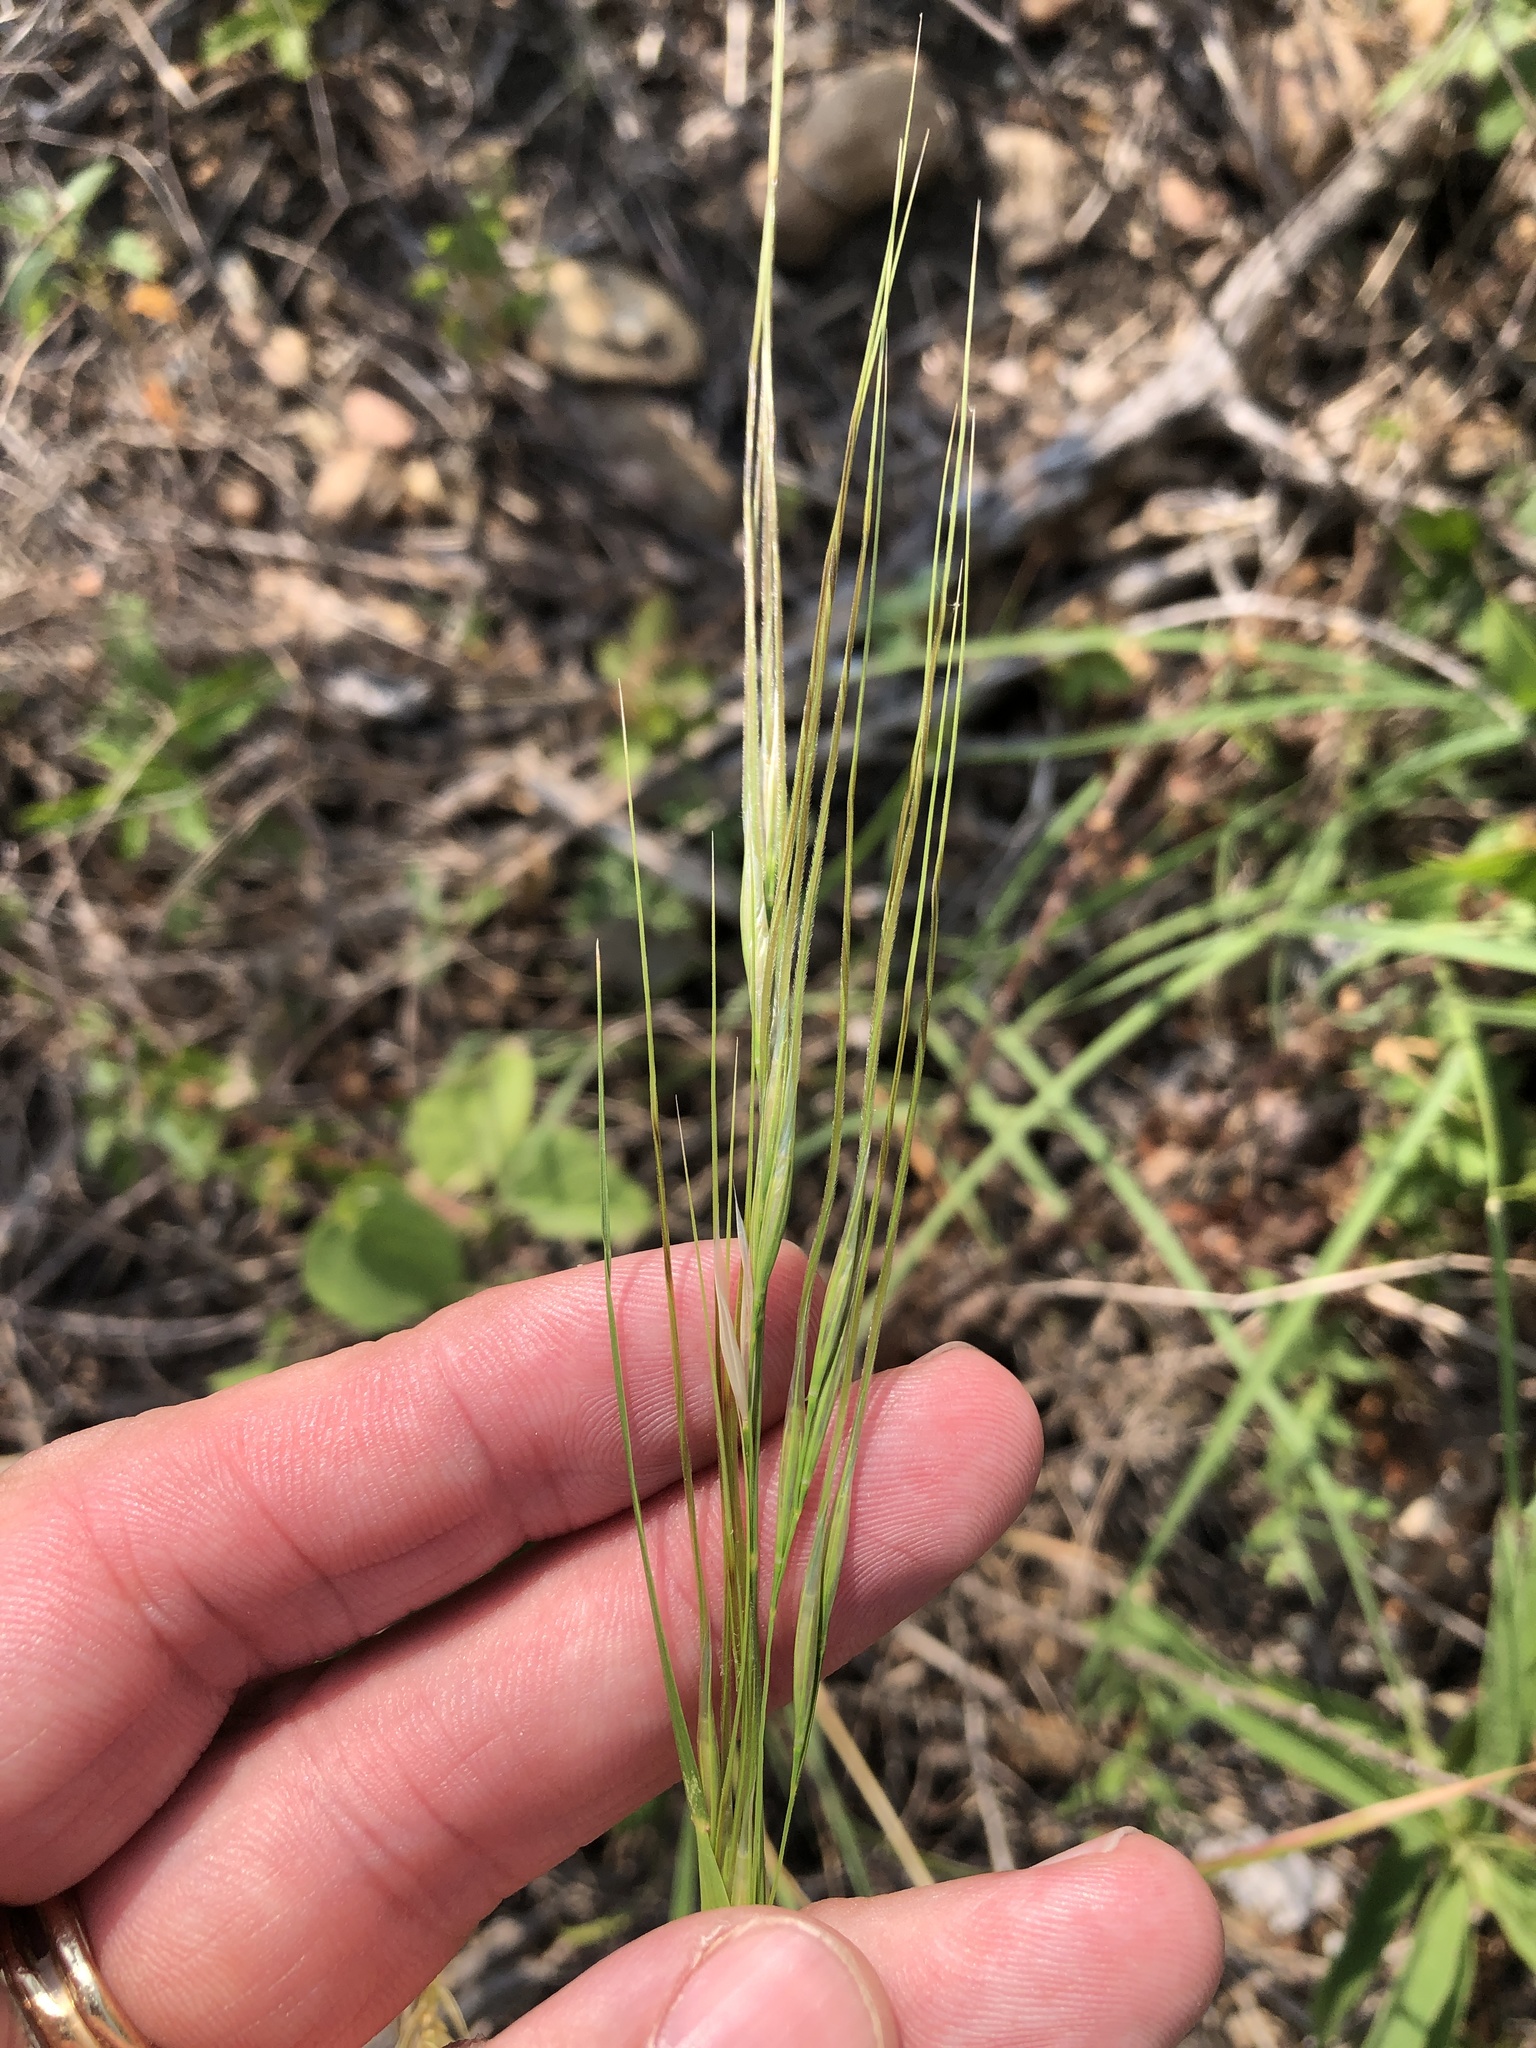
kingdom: Plantae
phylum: Tracheophyta
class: Liliopsida
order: Poales
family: Poaceae
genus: Nassella
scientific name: Nassella leucotricha
